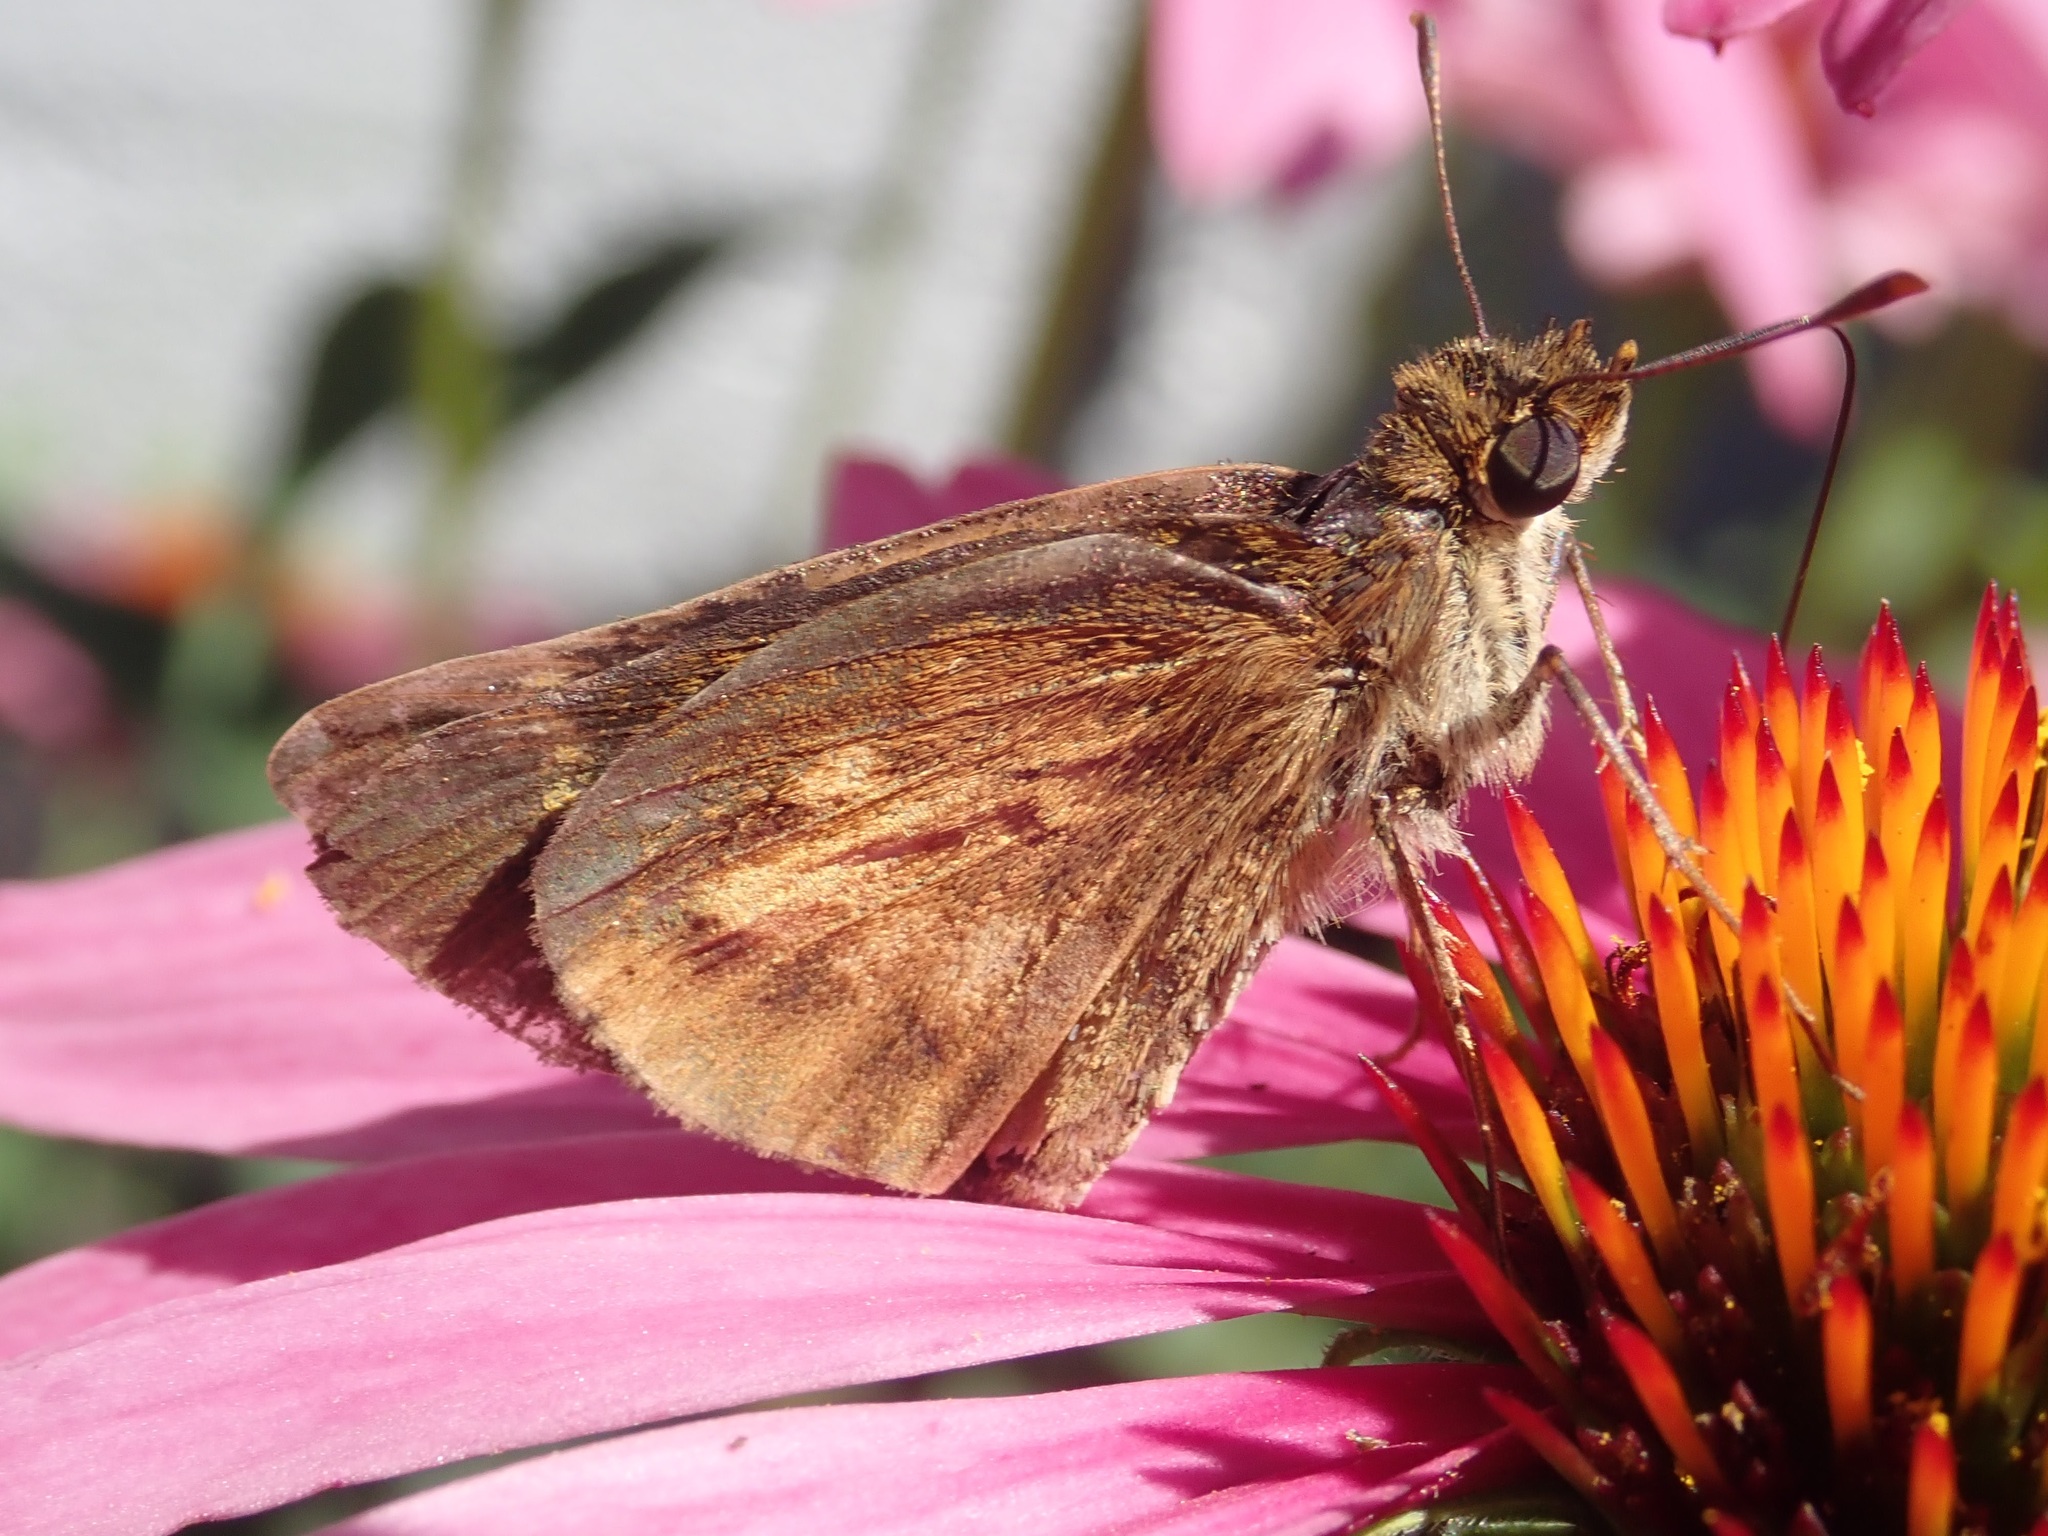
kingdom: Animalia
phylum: Arthropoda
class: Insecta
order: Lepidoptera
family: Hesperiidae
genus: Poanes
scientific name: Poanes viator
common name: Broad-winged skipper
